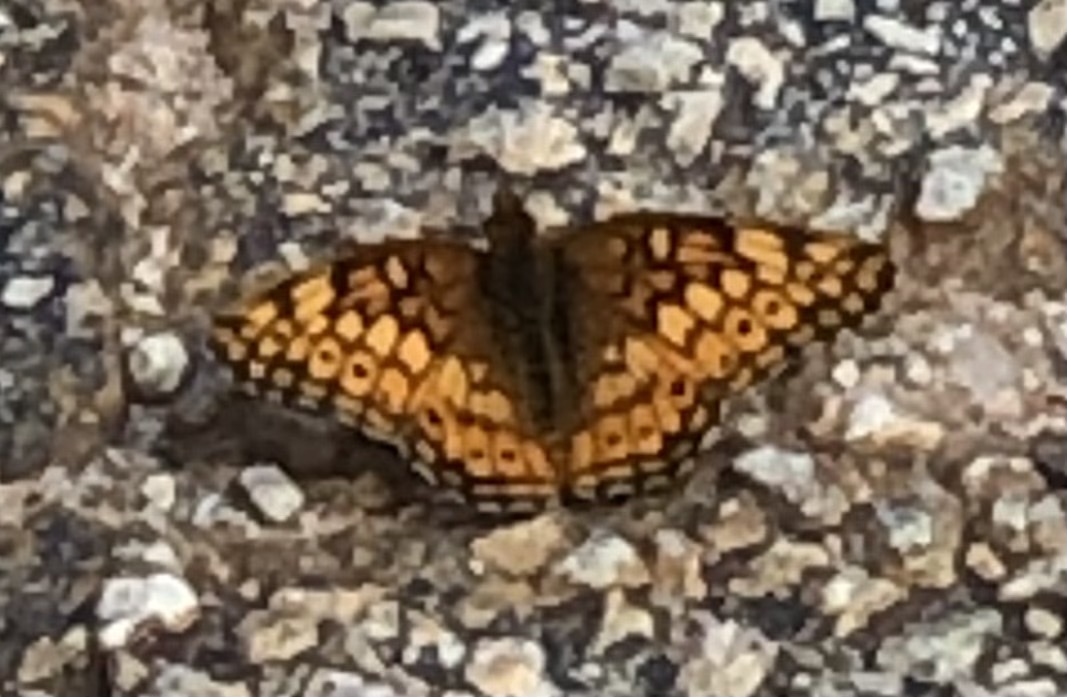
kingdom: Animalia
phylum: Arthropoda
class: Insecta
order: Lepidoptera
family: Nymphalidae
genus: Euptoieta
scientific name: Euptoieta claudia
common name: Variegated fritillary
